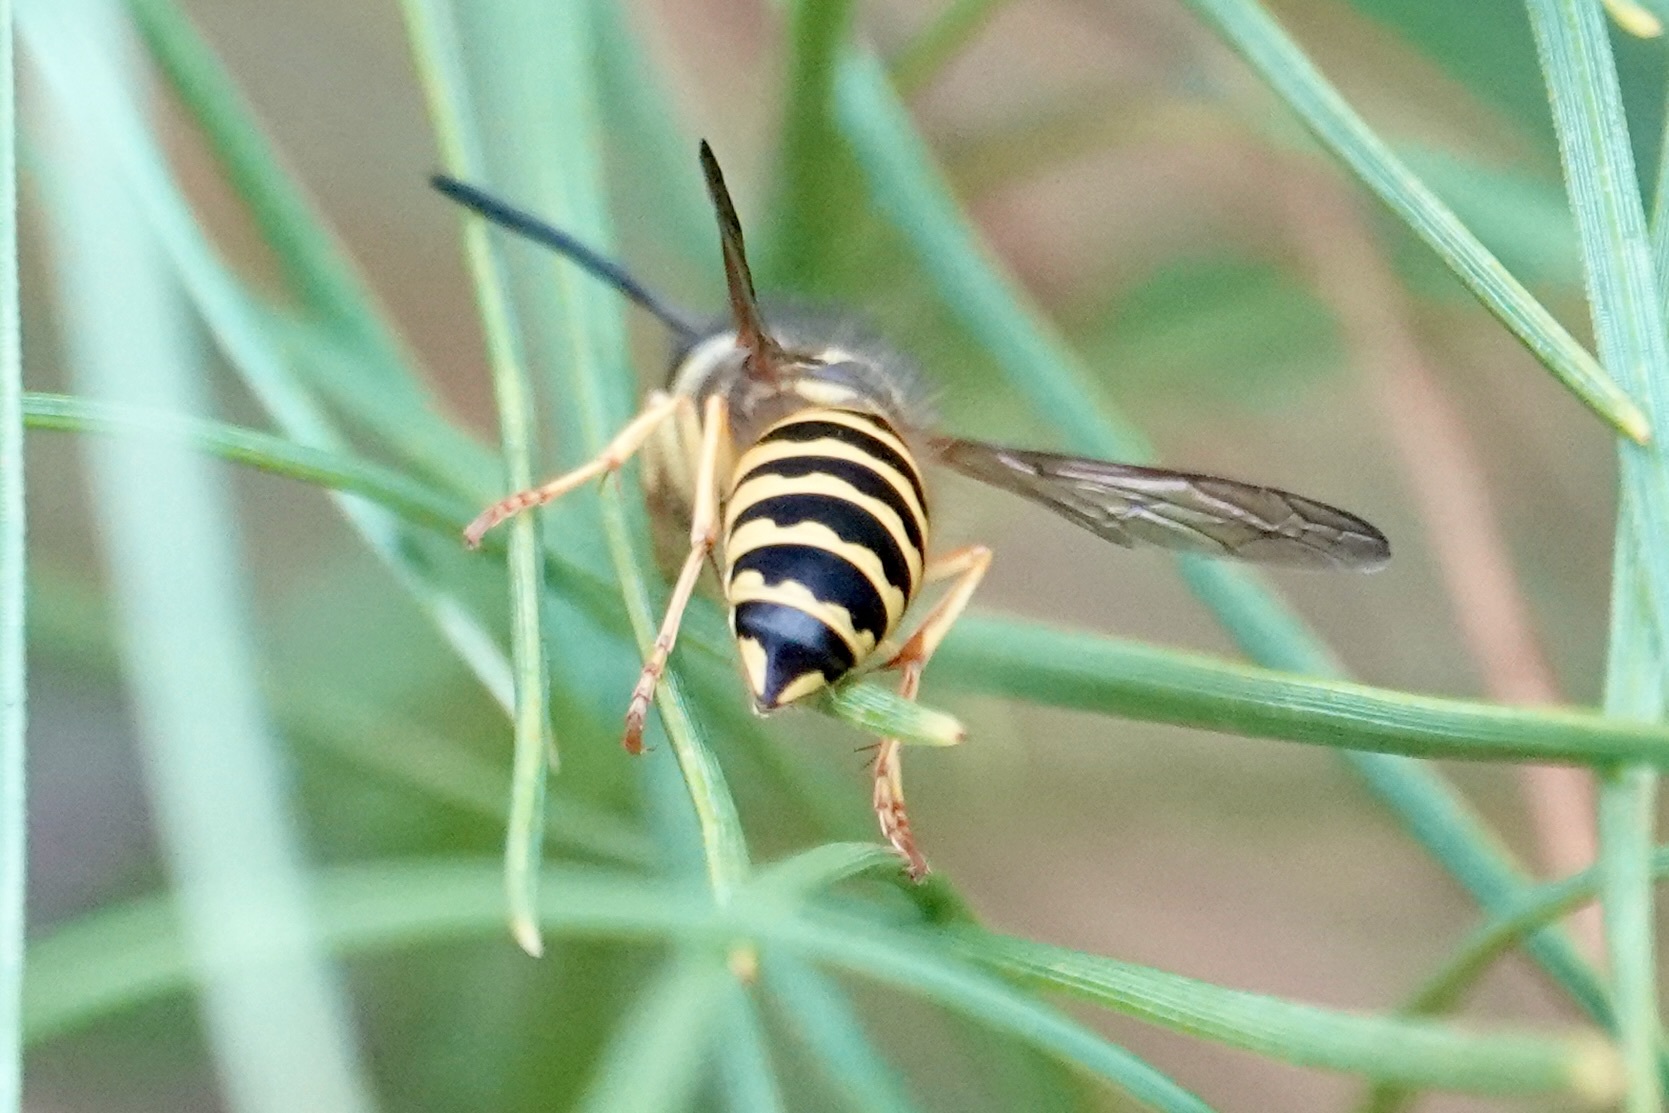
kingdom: Animalia
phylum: Arthropoda
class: Insecta
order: Hymenoptera
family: Vespidae
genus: Vespula
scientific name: Vespula maculifrons
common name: Eastern yellowjacket
